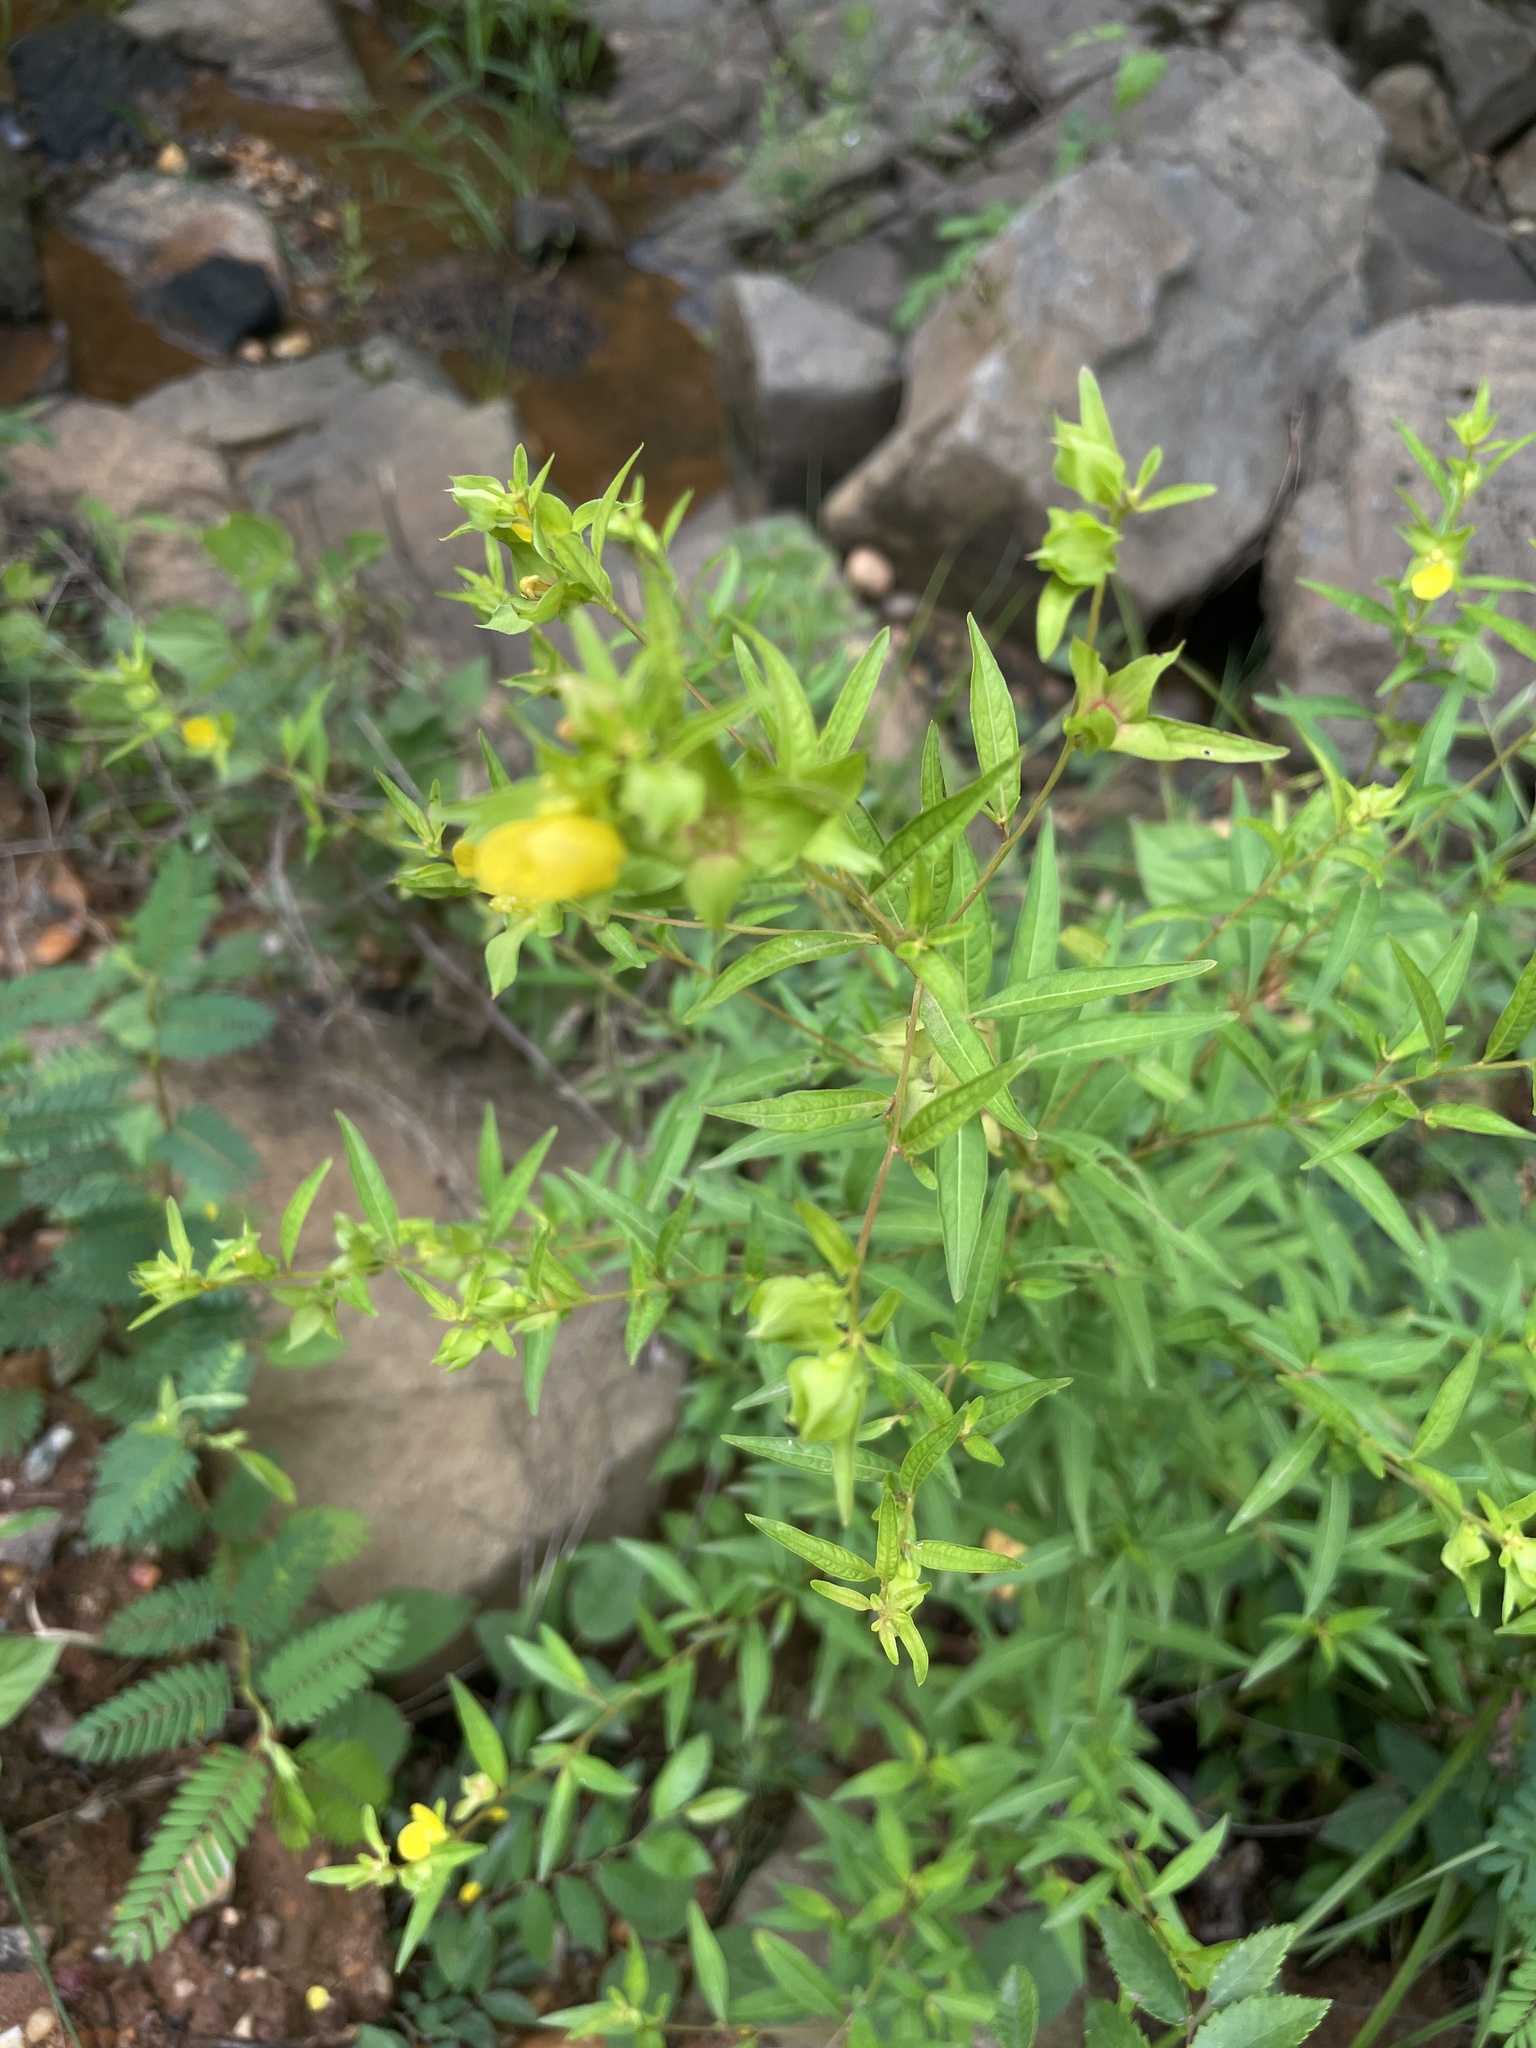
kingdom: Plantae
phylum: Tracheophyta
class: Magnoliopsida
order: Myrtales
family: Onagraceae
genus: Ludwigia
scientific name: Ludwigia alternifolia
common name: Rattlebox
